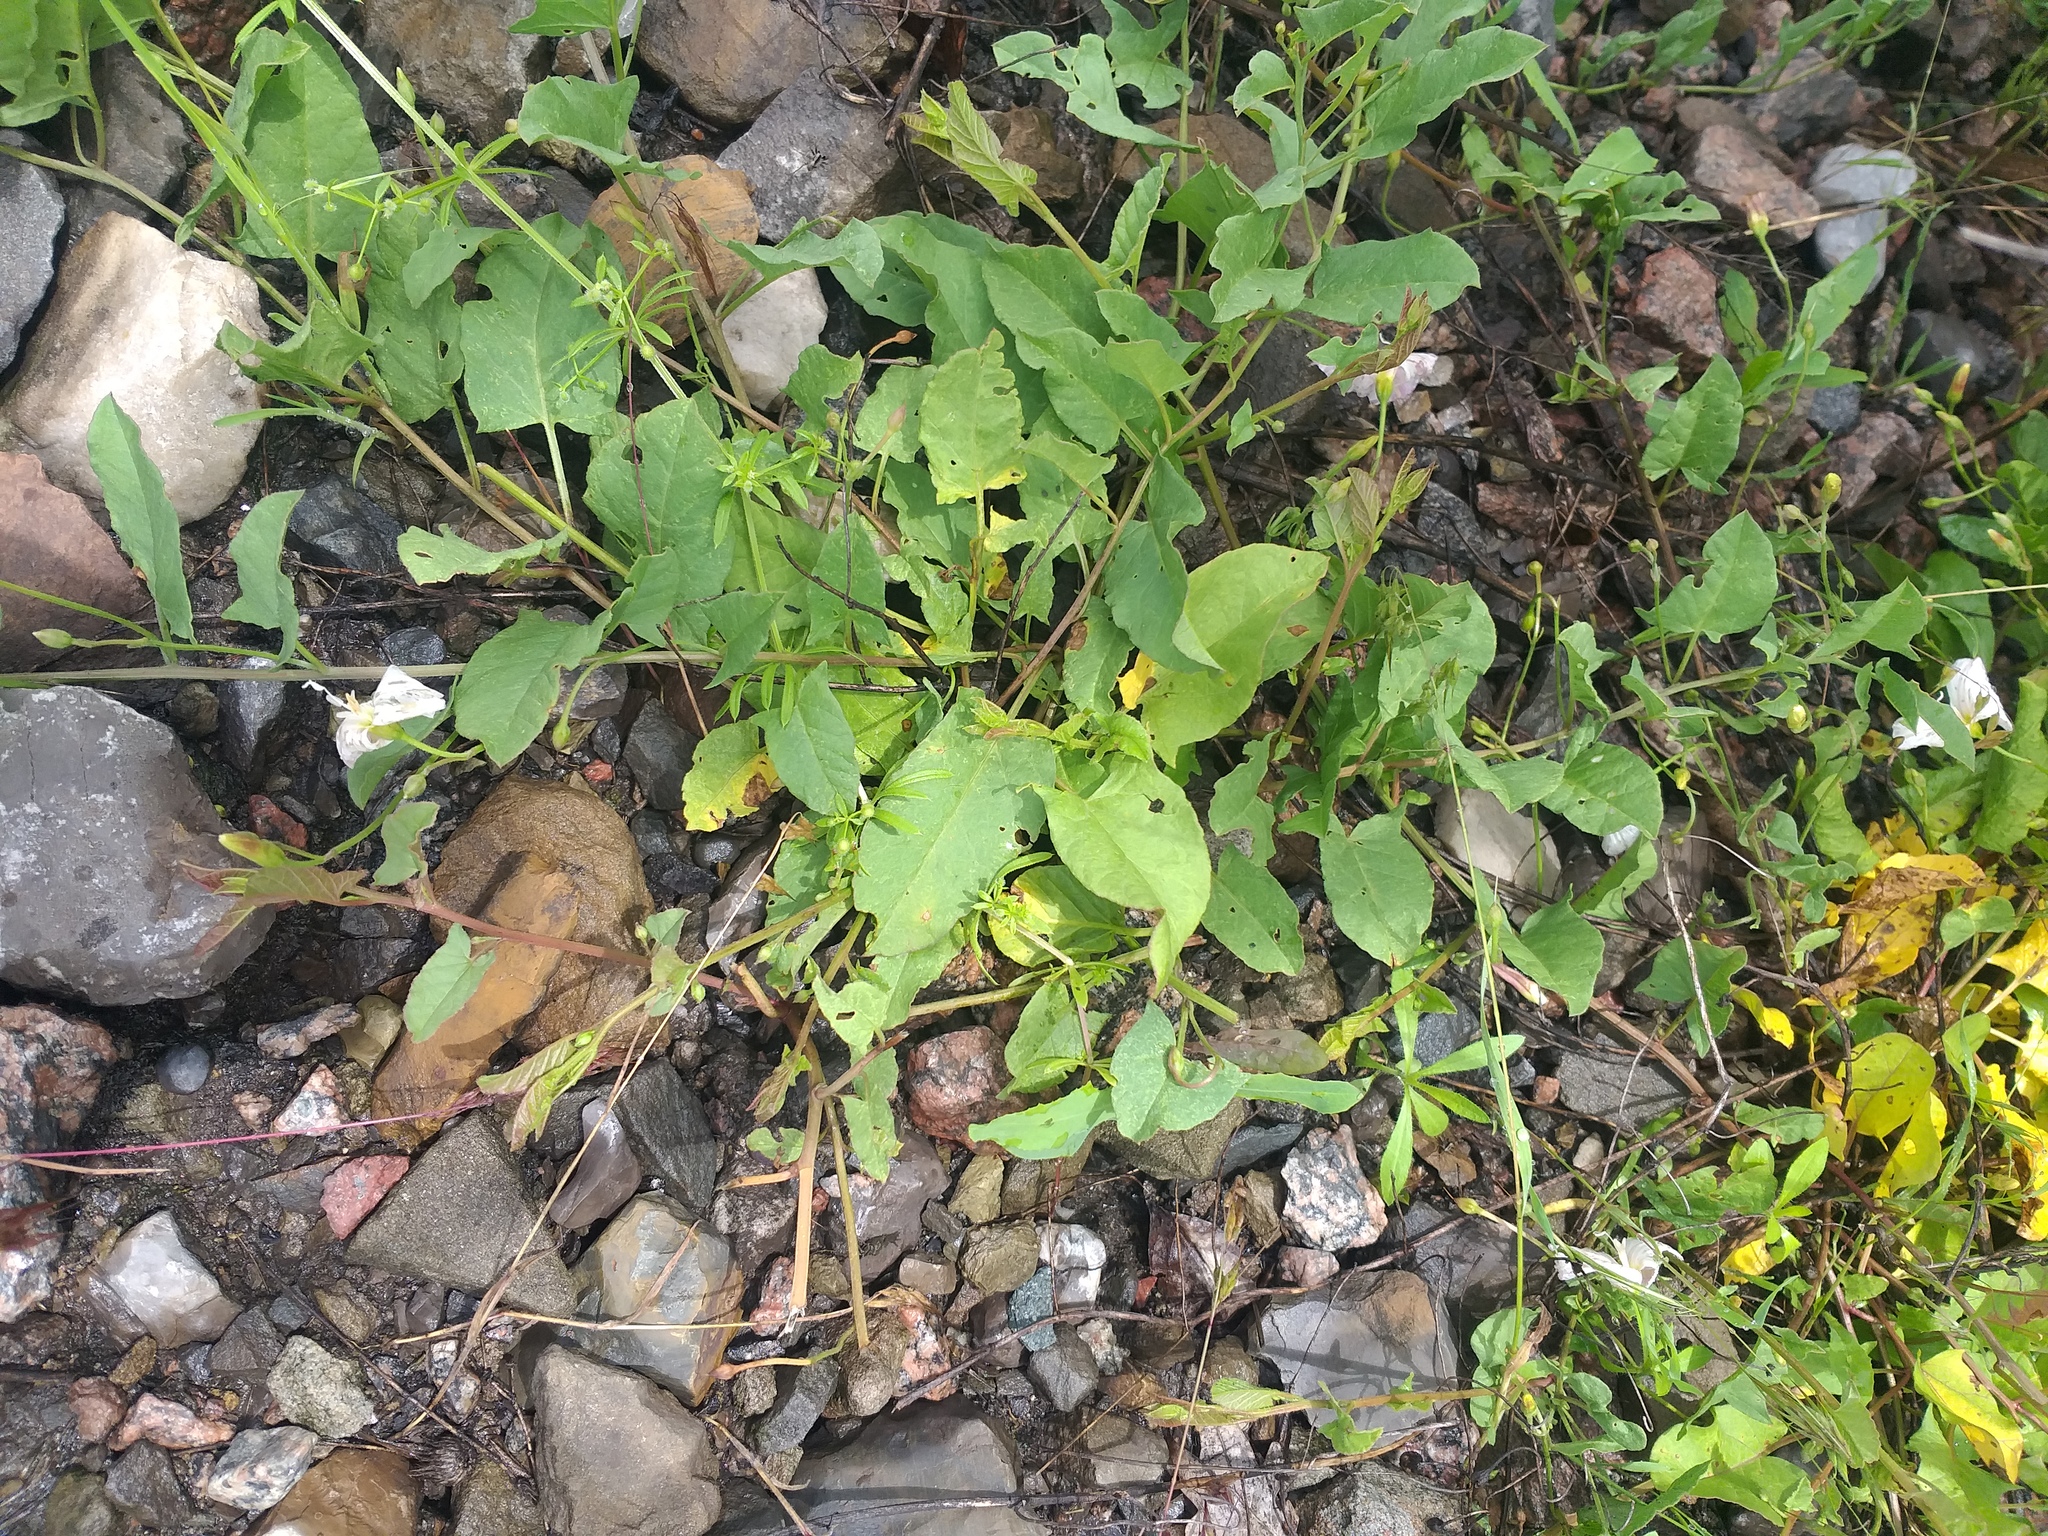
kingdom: Plantae
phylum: Tracheophyta
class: Magnoliopsida
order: Solanales
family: Convolvulaceae
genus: Convolvulus
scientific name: Convolvulus arvensis
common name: Field bindweed
